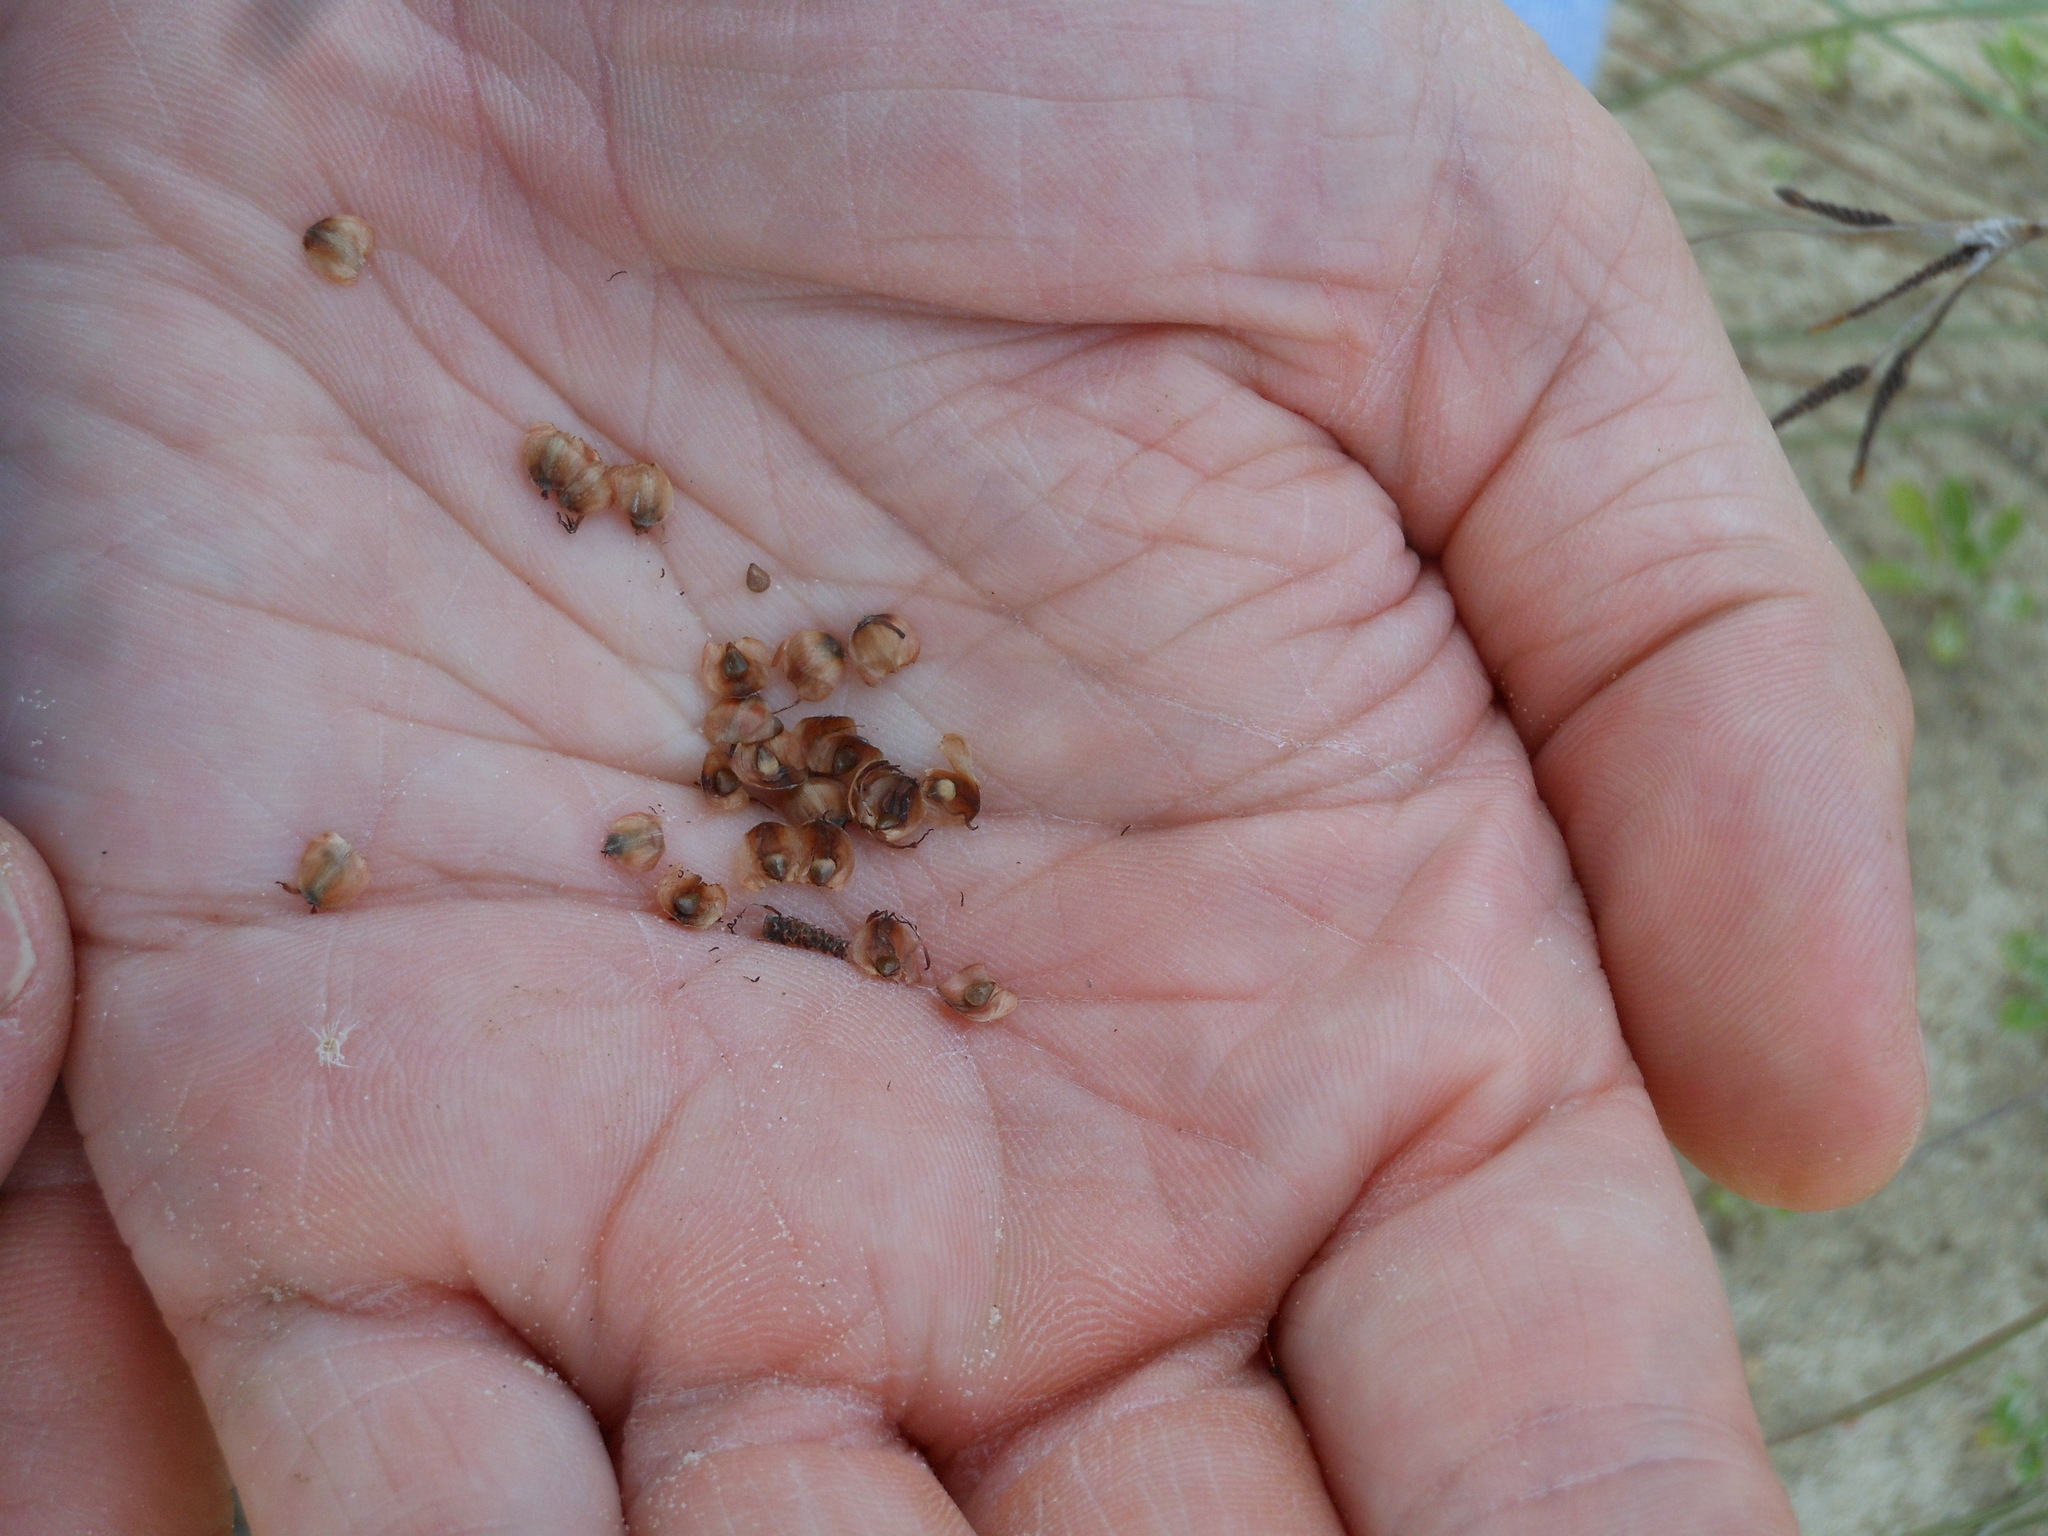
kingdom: Plantae
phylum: Tracheophyta
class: Liliopsida
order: Poales
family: Cyperaceae
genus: Fimbristylis
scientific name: Fimbristylis spadicea
